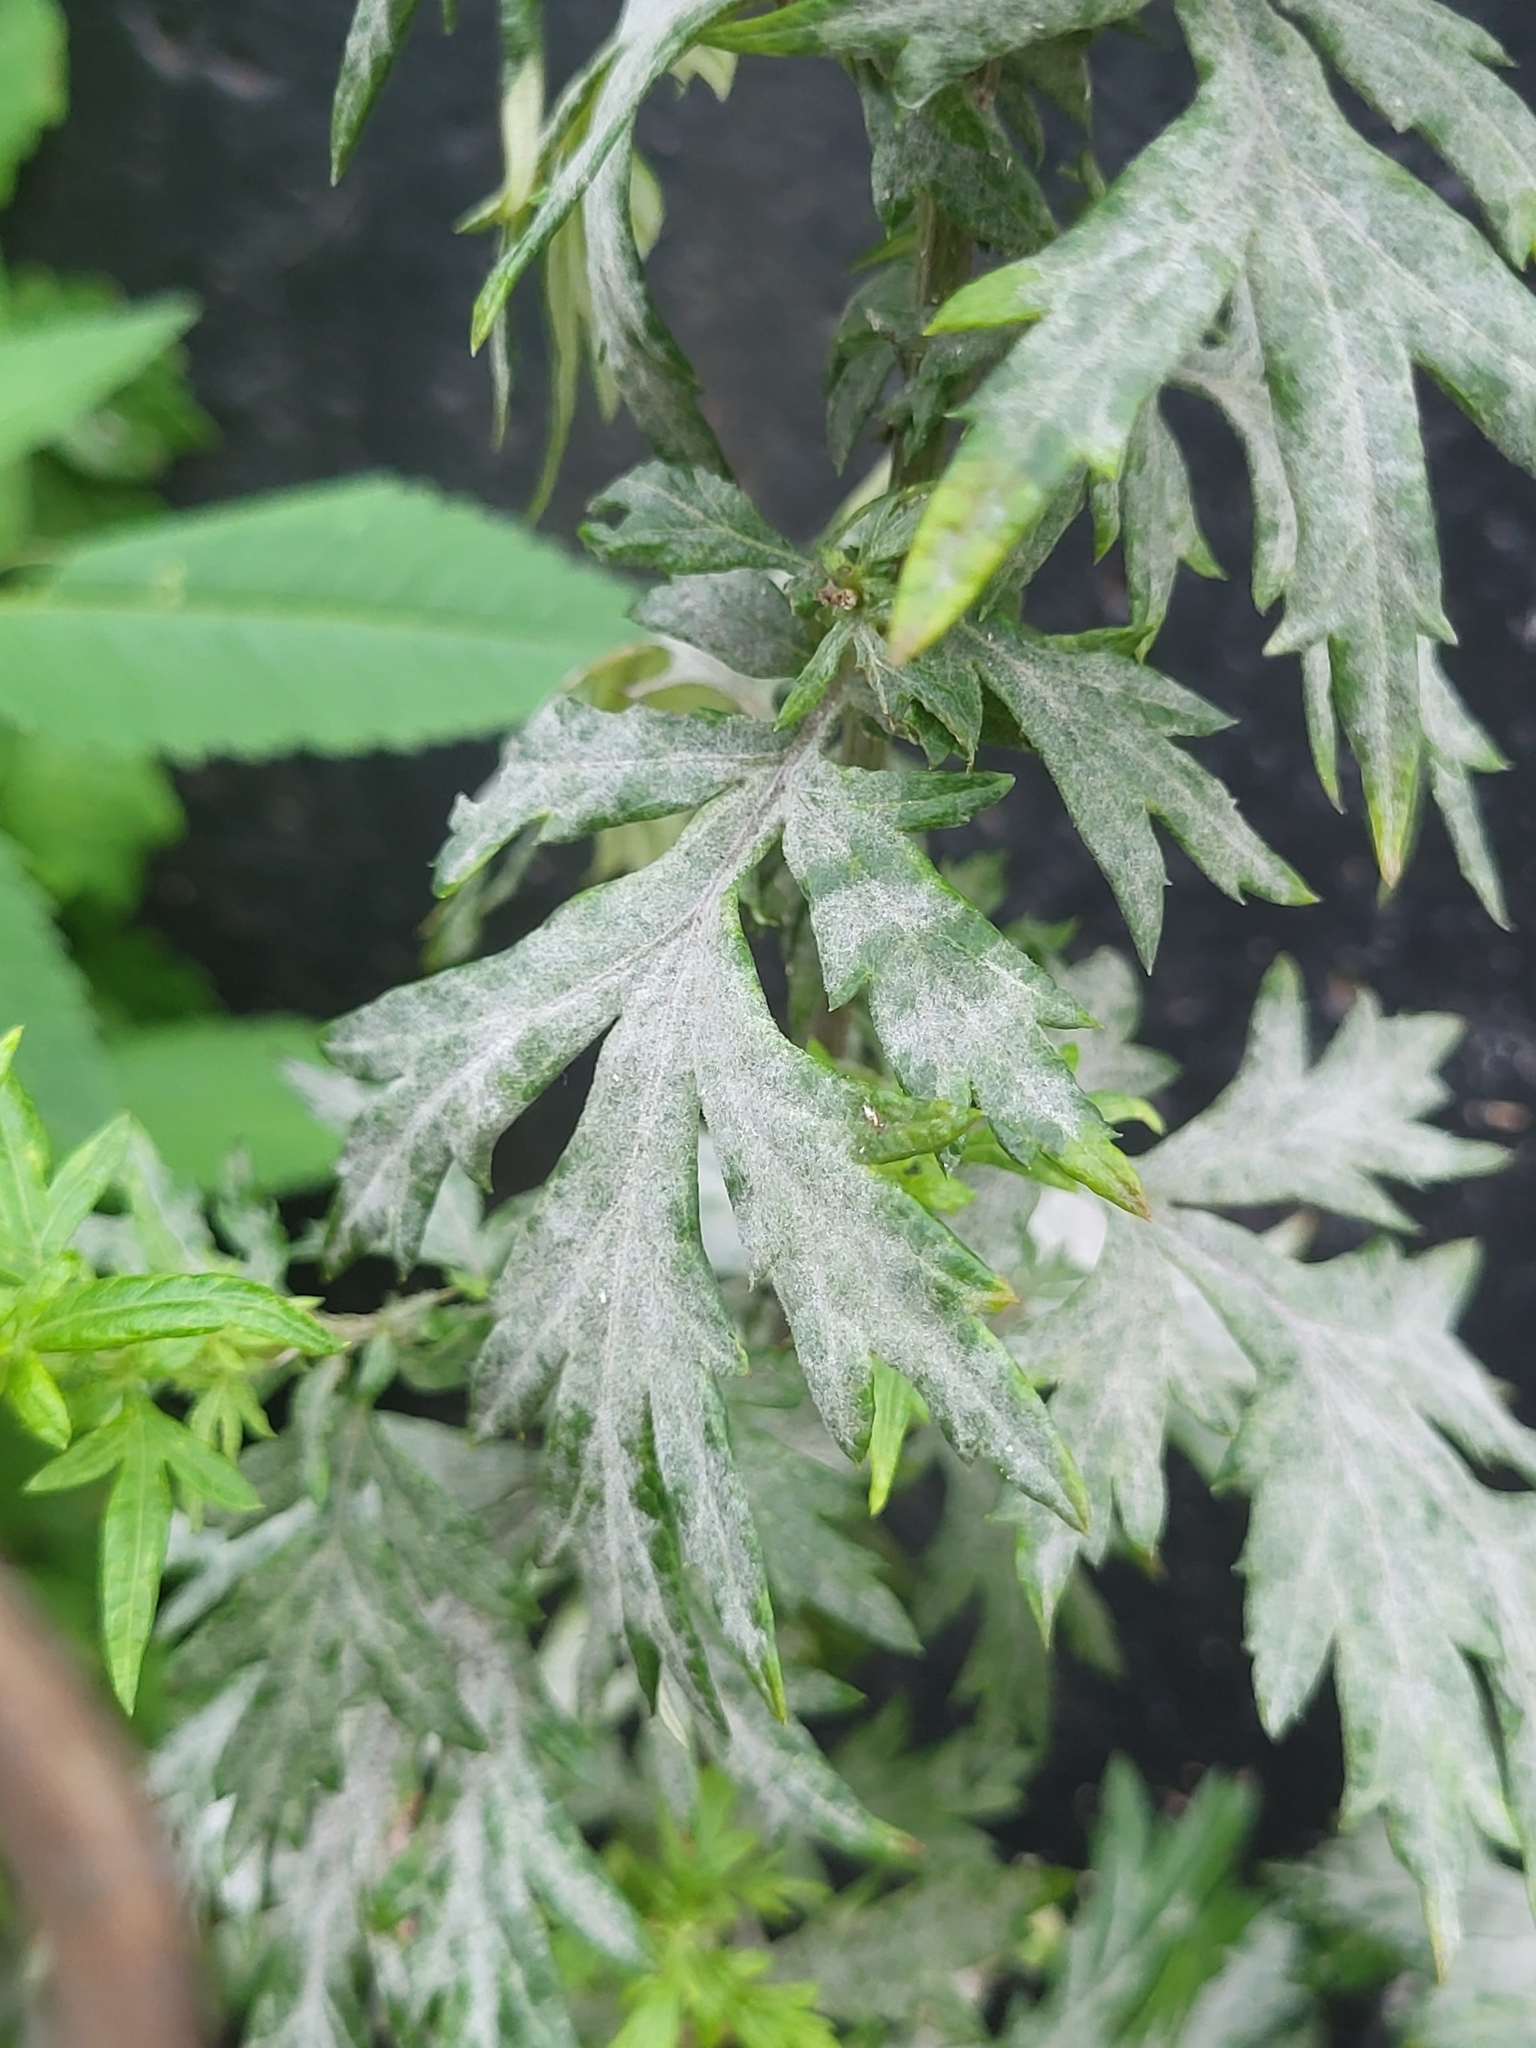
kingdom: Fungi
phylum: Ascomycota
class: Leotiomycetes
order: Helotiales
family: Erysiphaceae
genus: Golovinomyces
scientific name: Golovinomyces artemisiae
